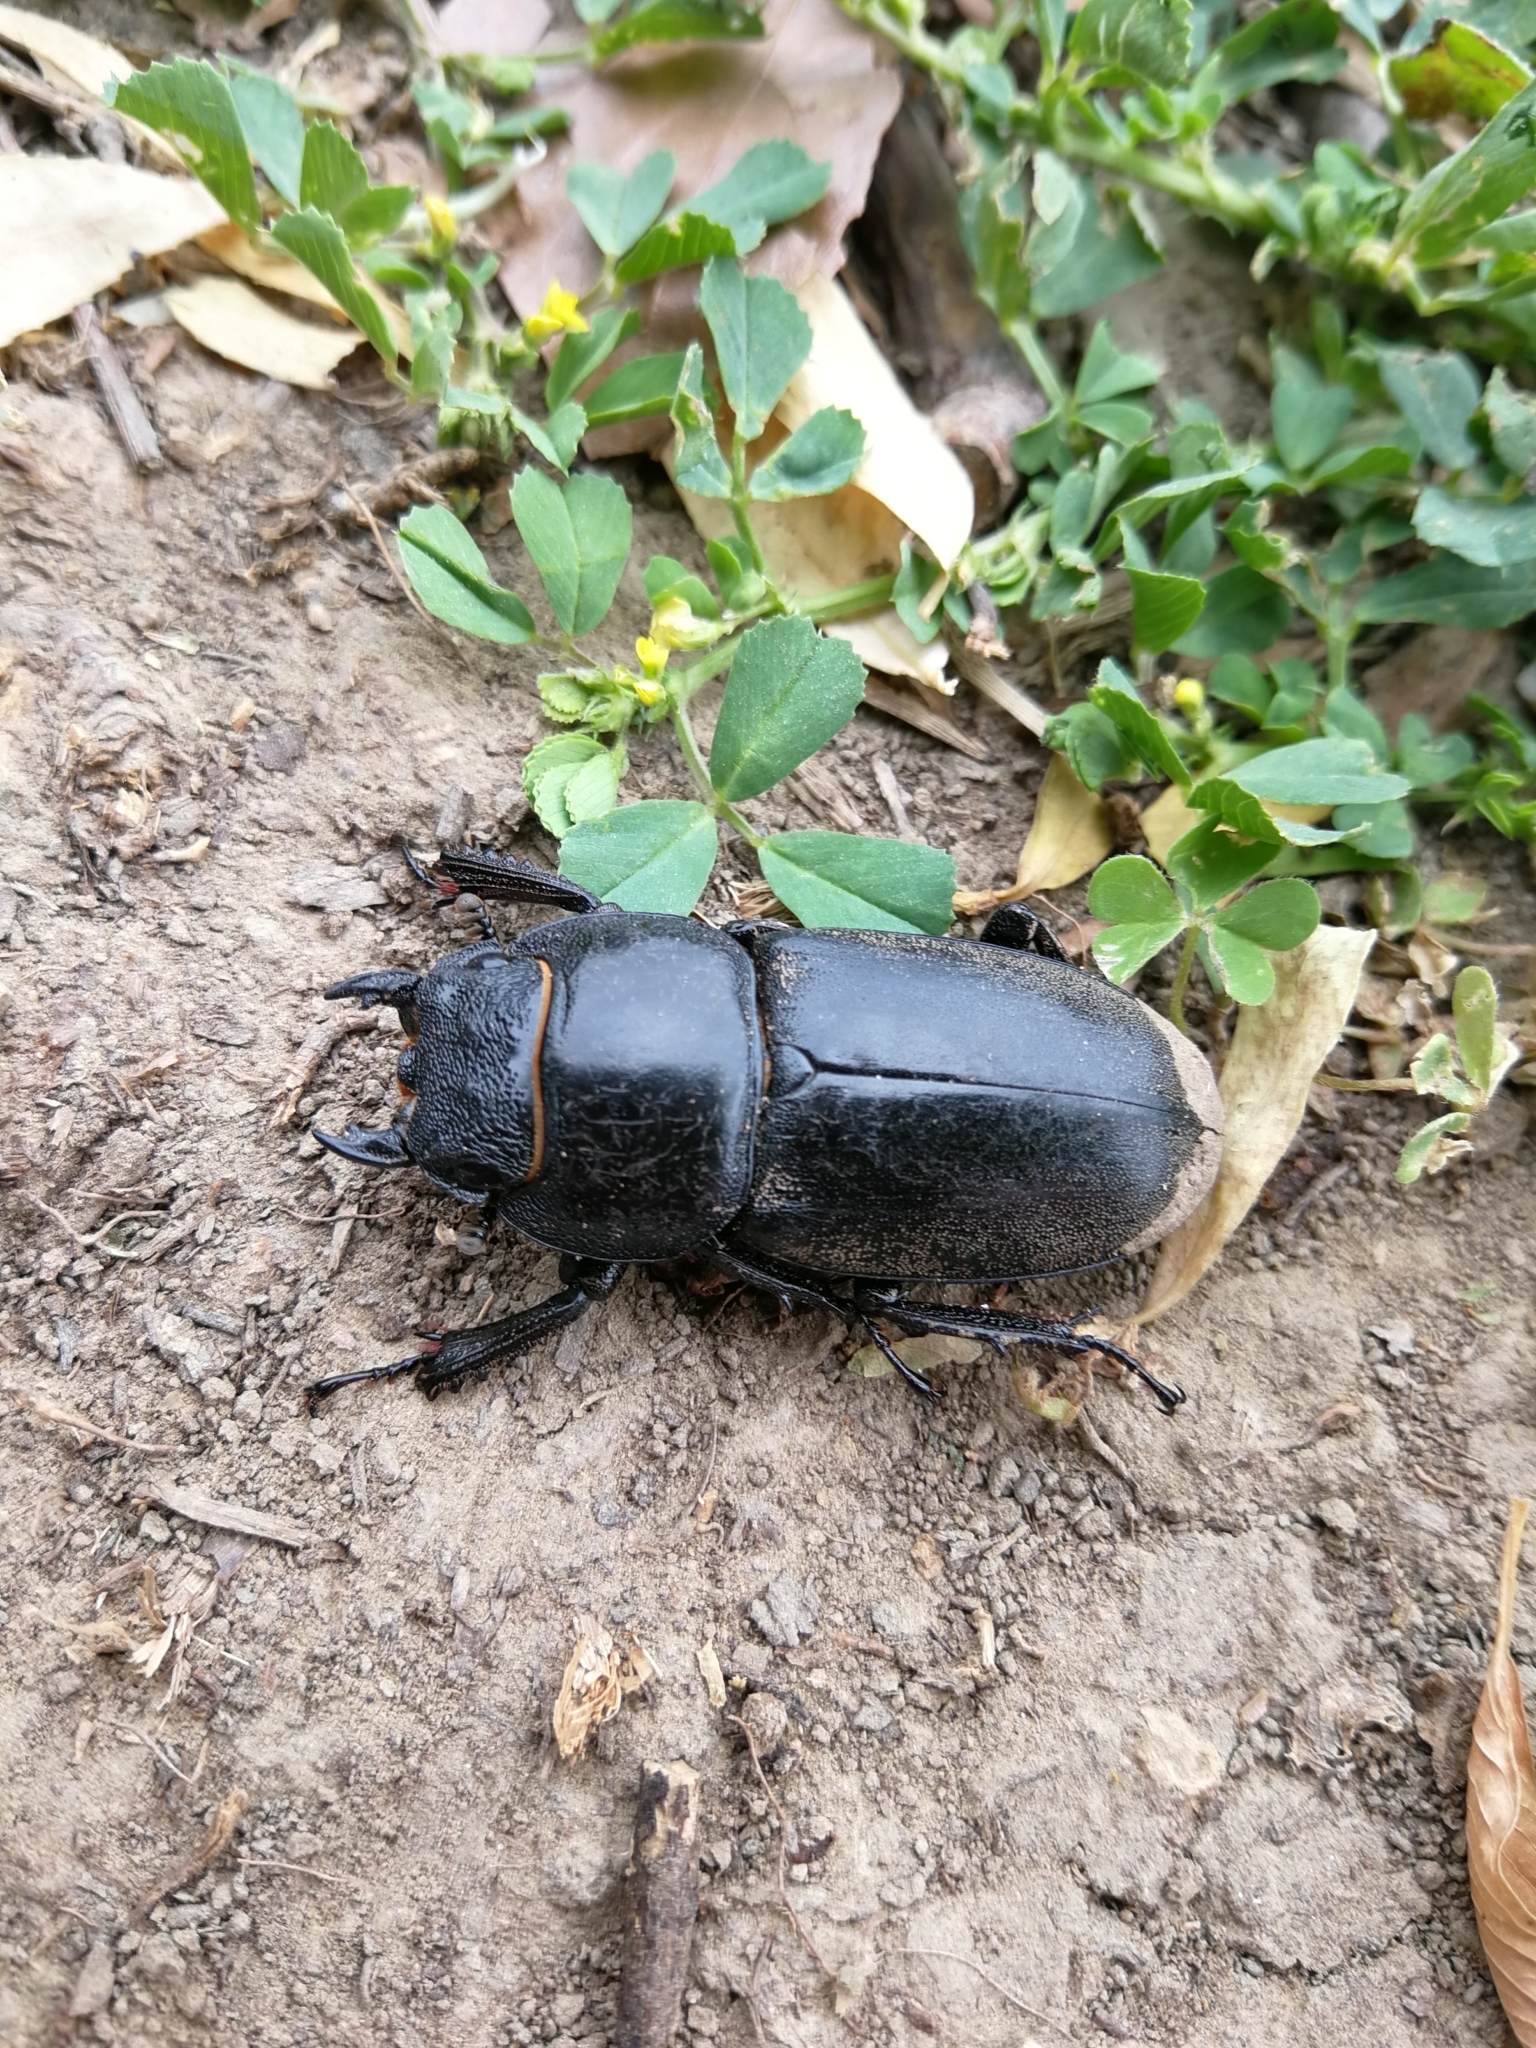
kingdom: Animalia
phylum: Arthropoda
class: Insecta
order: Coleoptera
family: Lucanidae
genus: Serrognathus
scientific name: Serrognathus titanus
